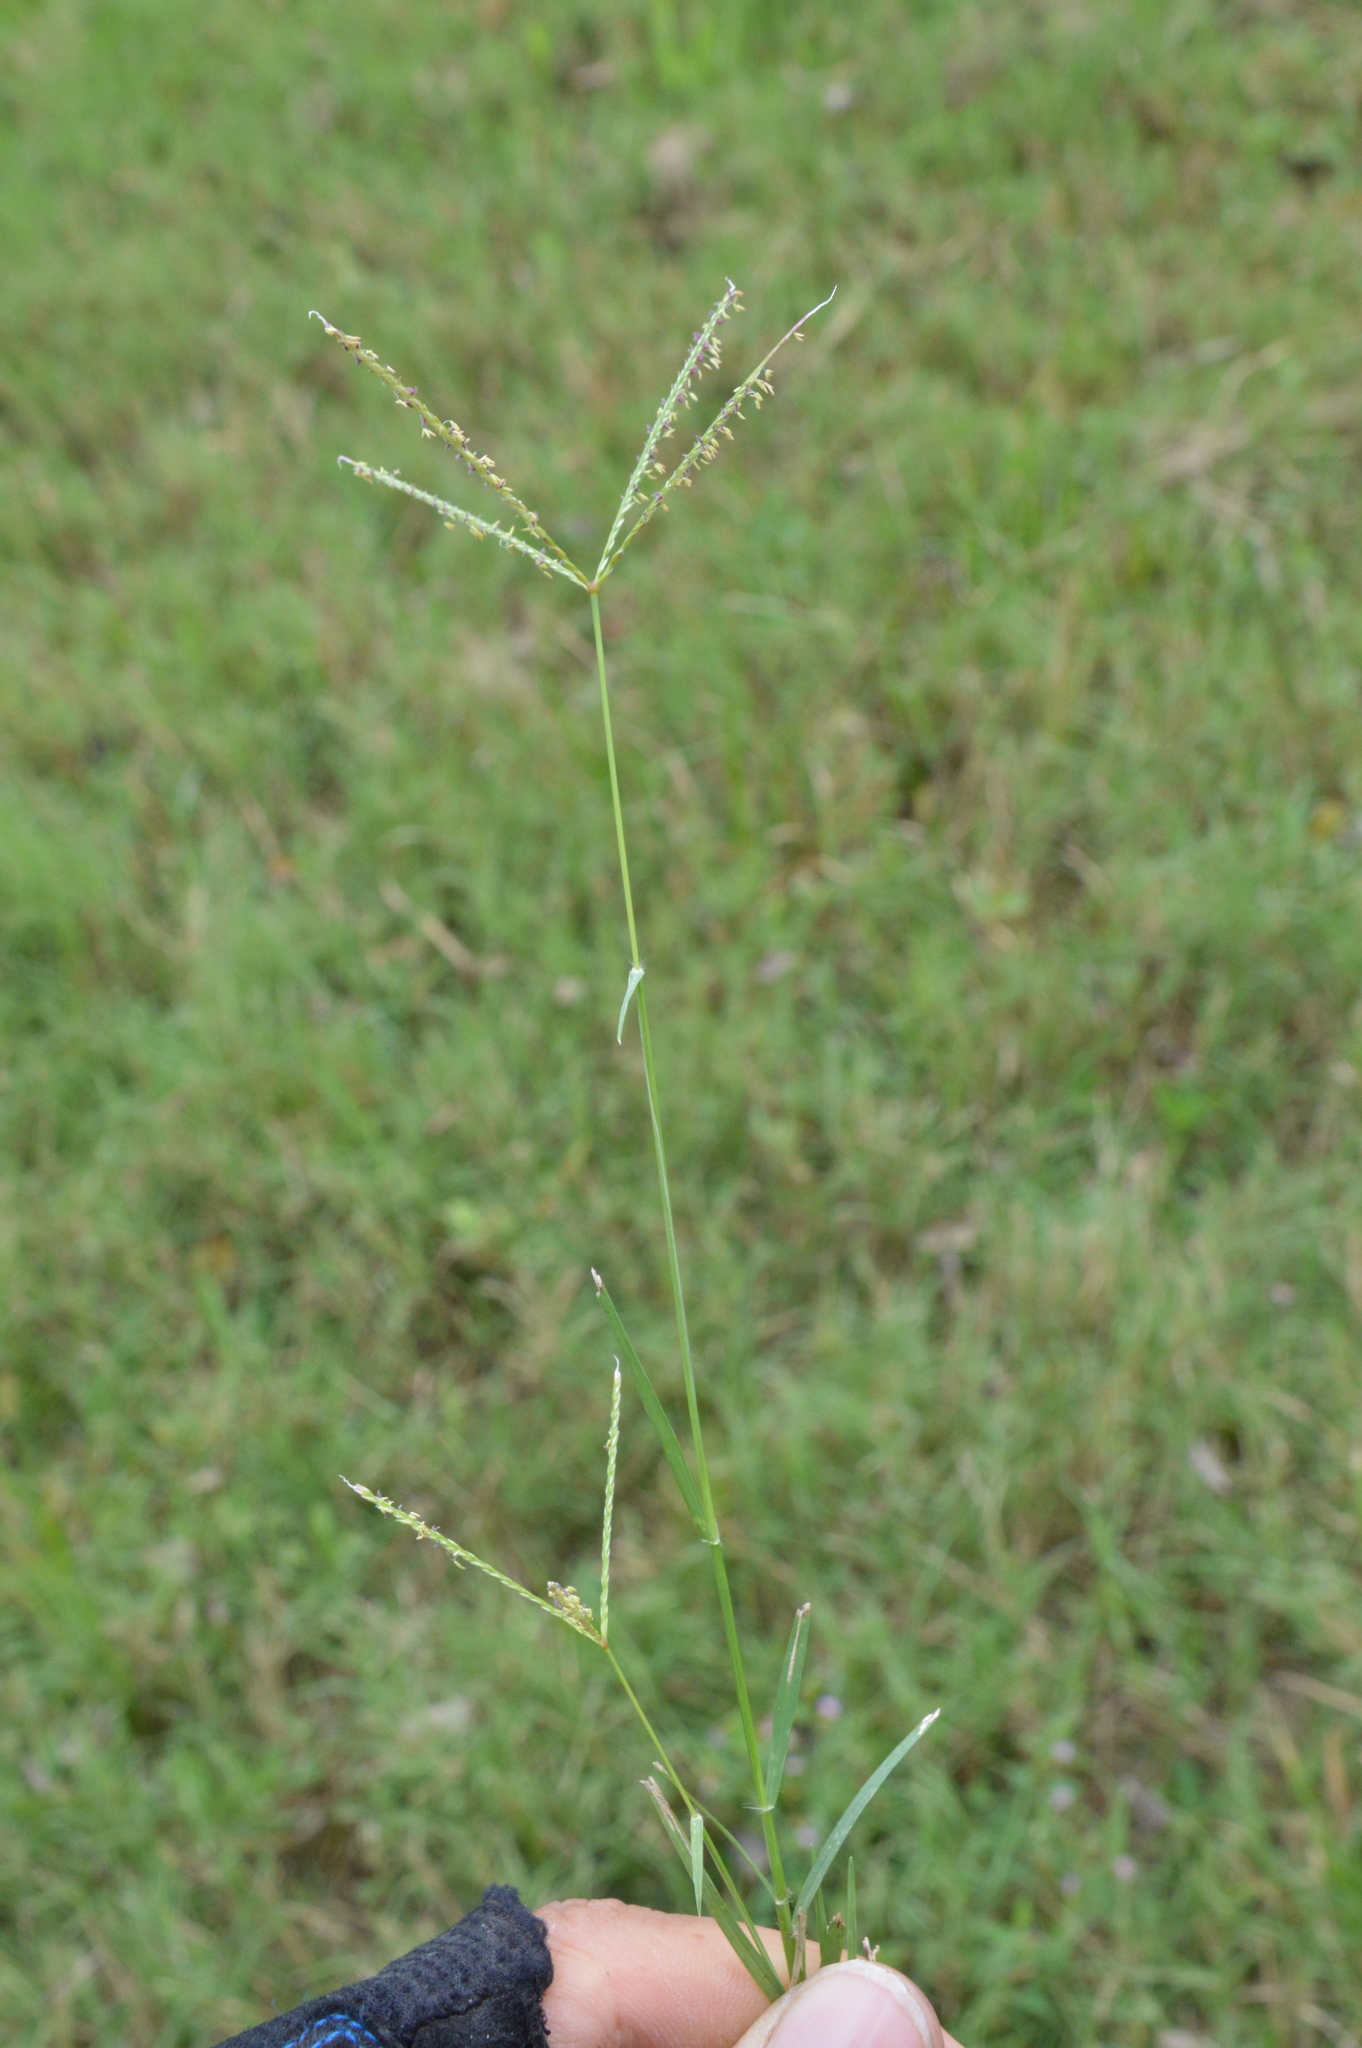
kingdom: Plantae
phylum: Tracheophyta
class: Liliopsida
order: Poales
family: Poaceae
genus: Cynodon
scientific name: Cynodon dactylon
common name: Bermuda grass
